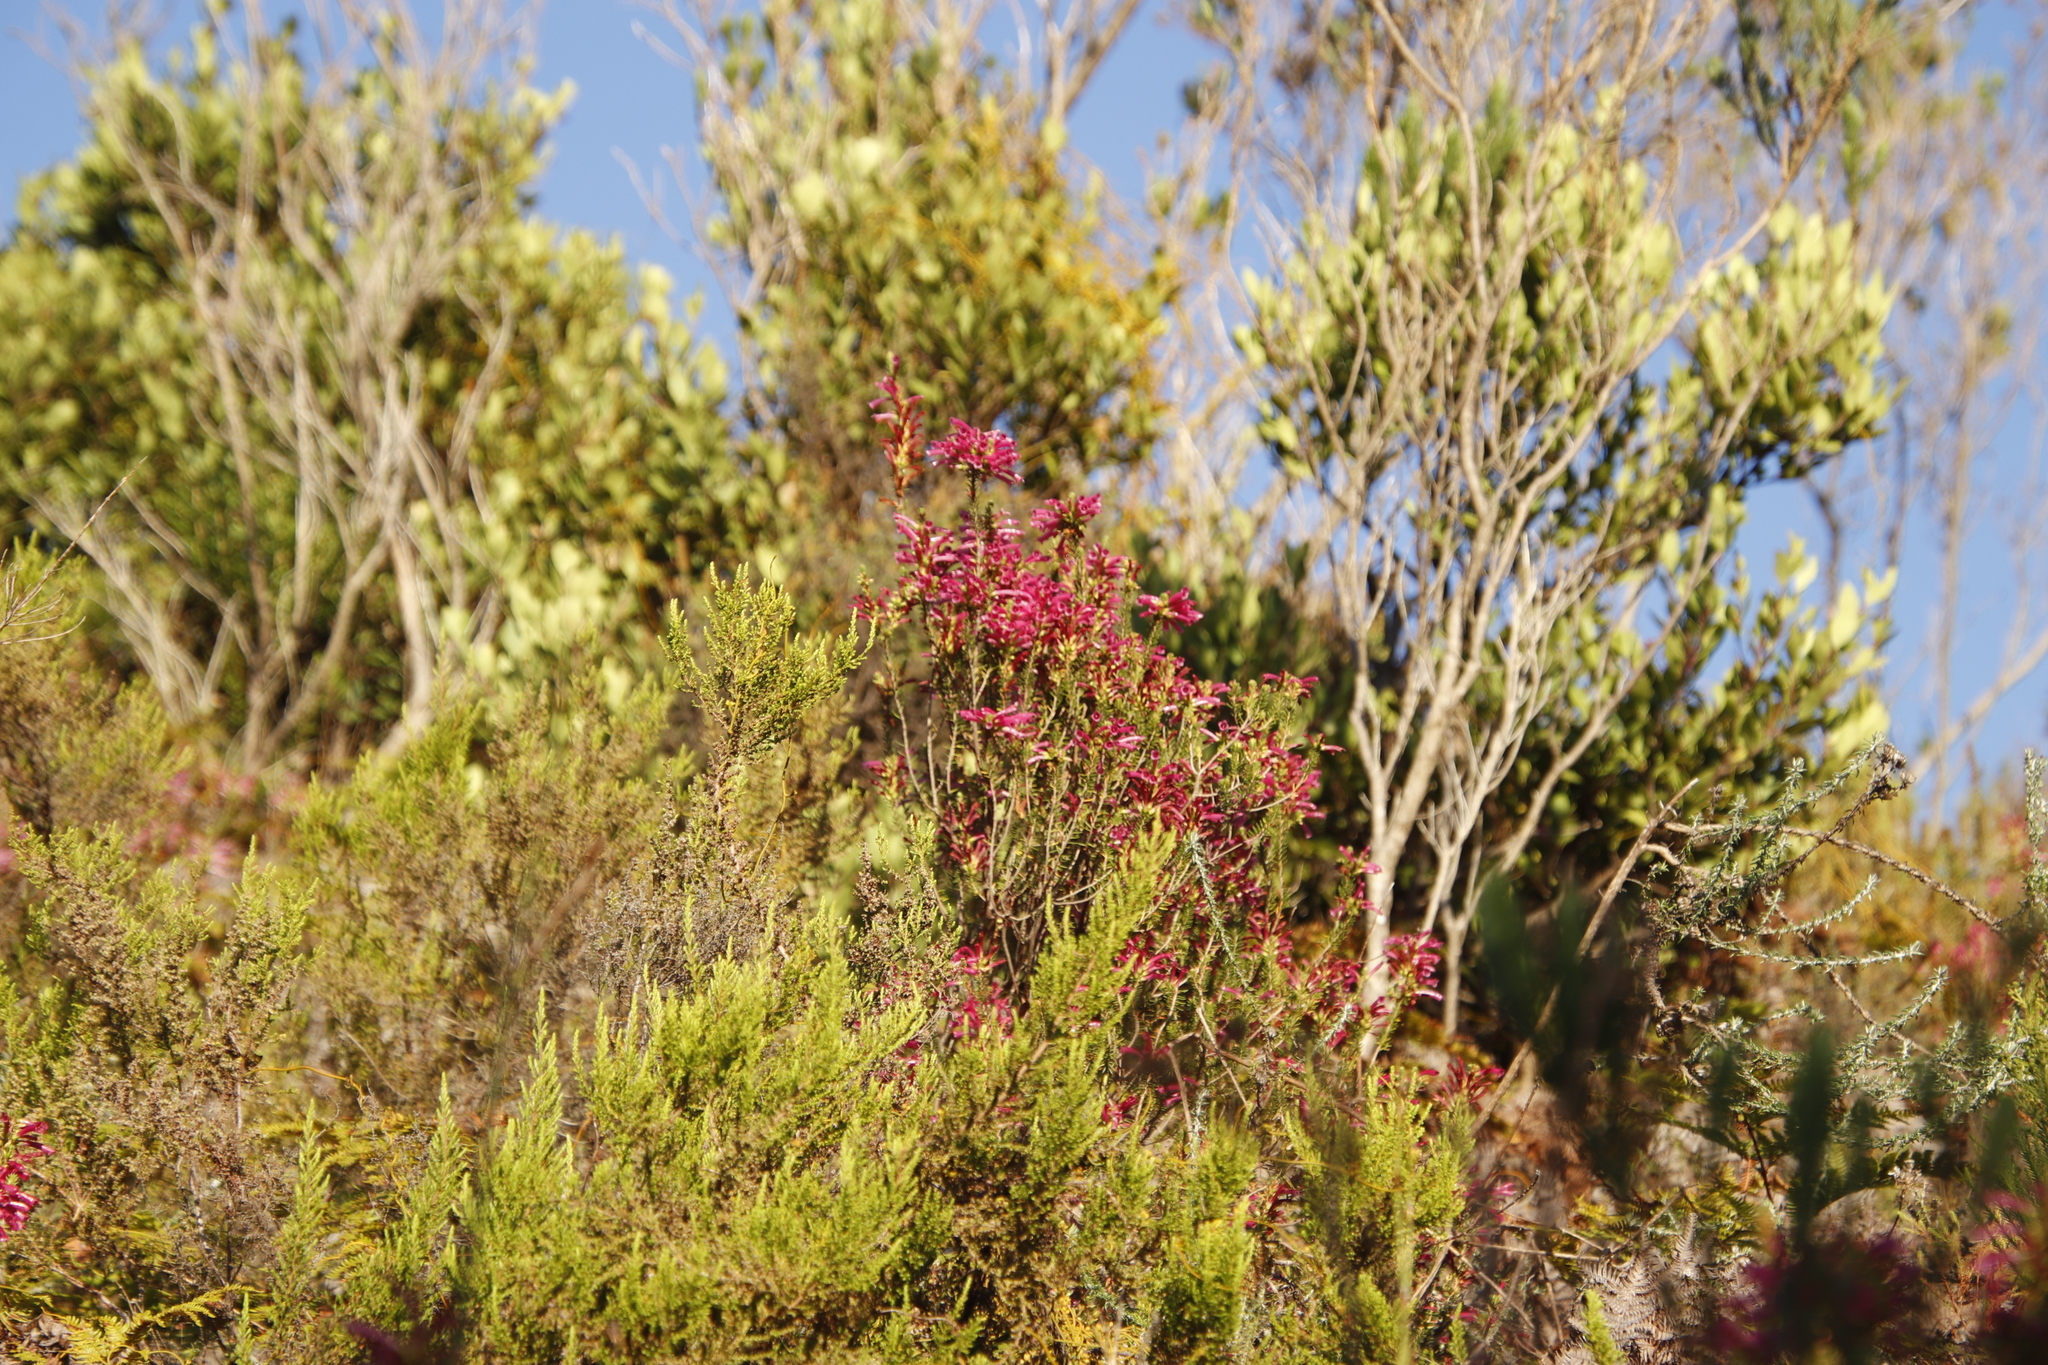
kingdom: Plantae
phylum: Tracheophyta
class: Magnoliopsida
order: Ericales
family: Ericaceae
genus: Erica
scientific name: Erica abietina
